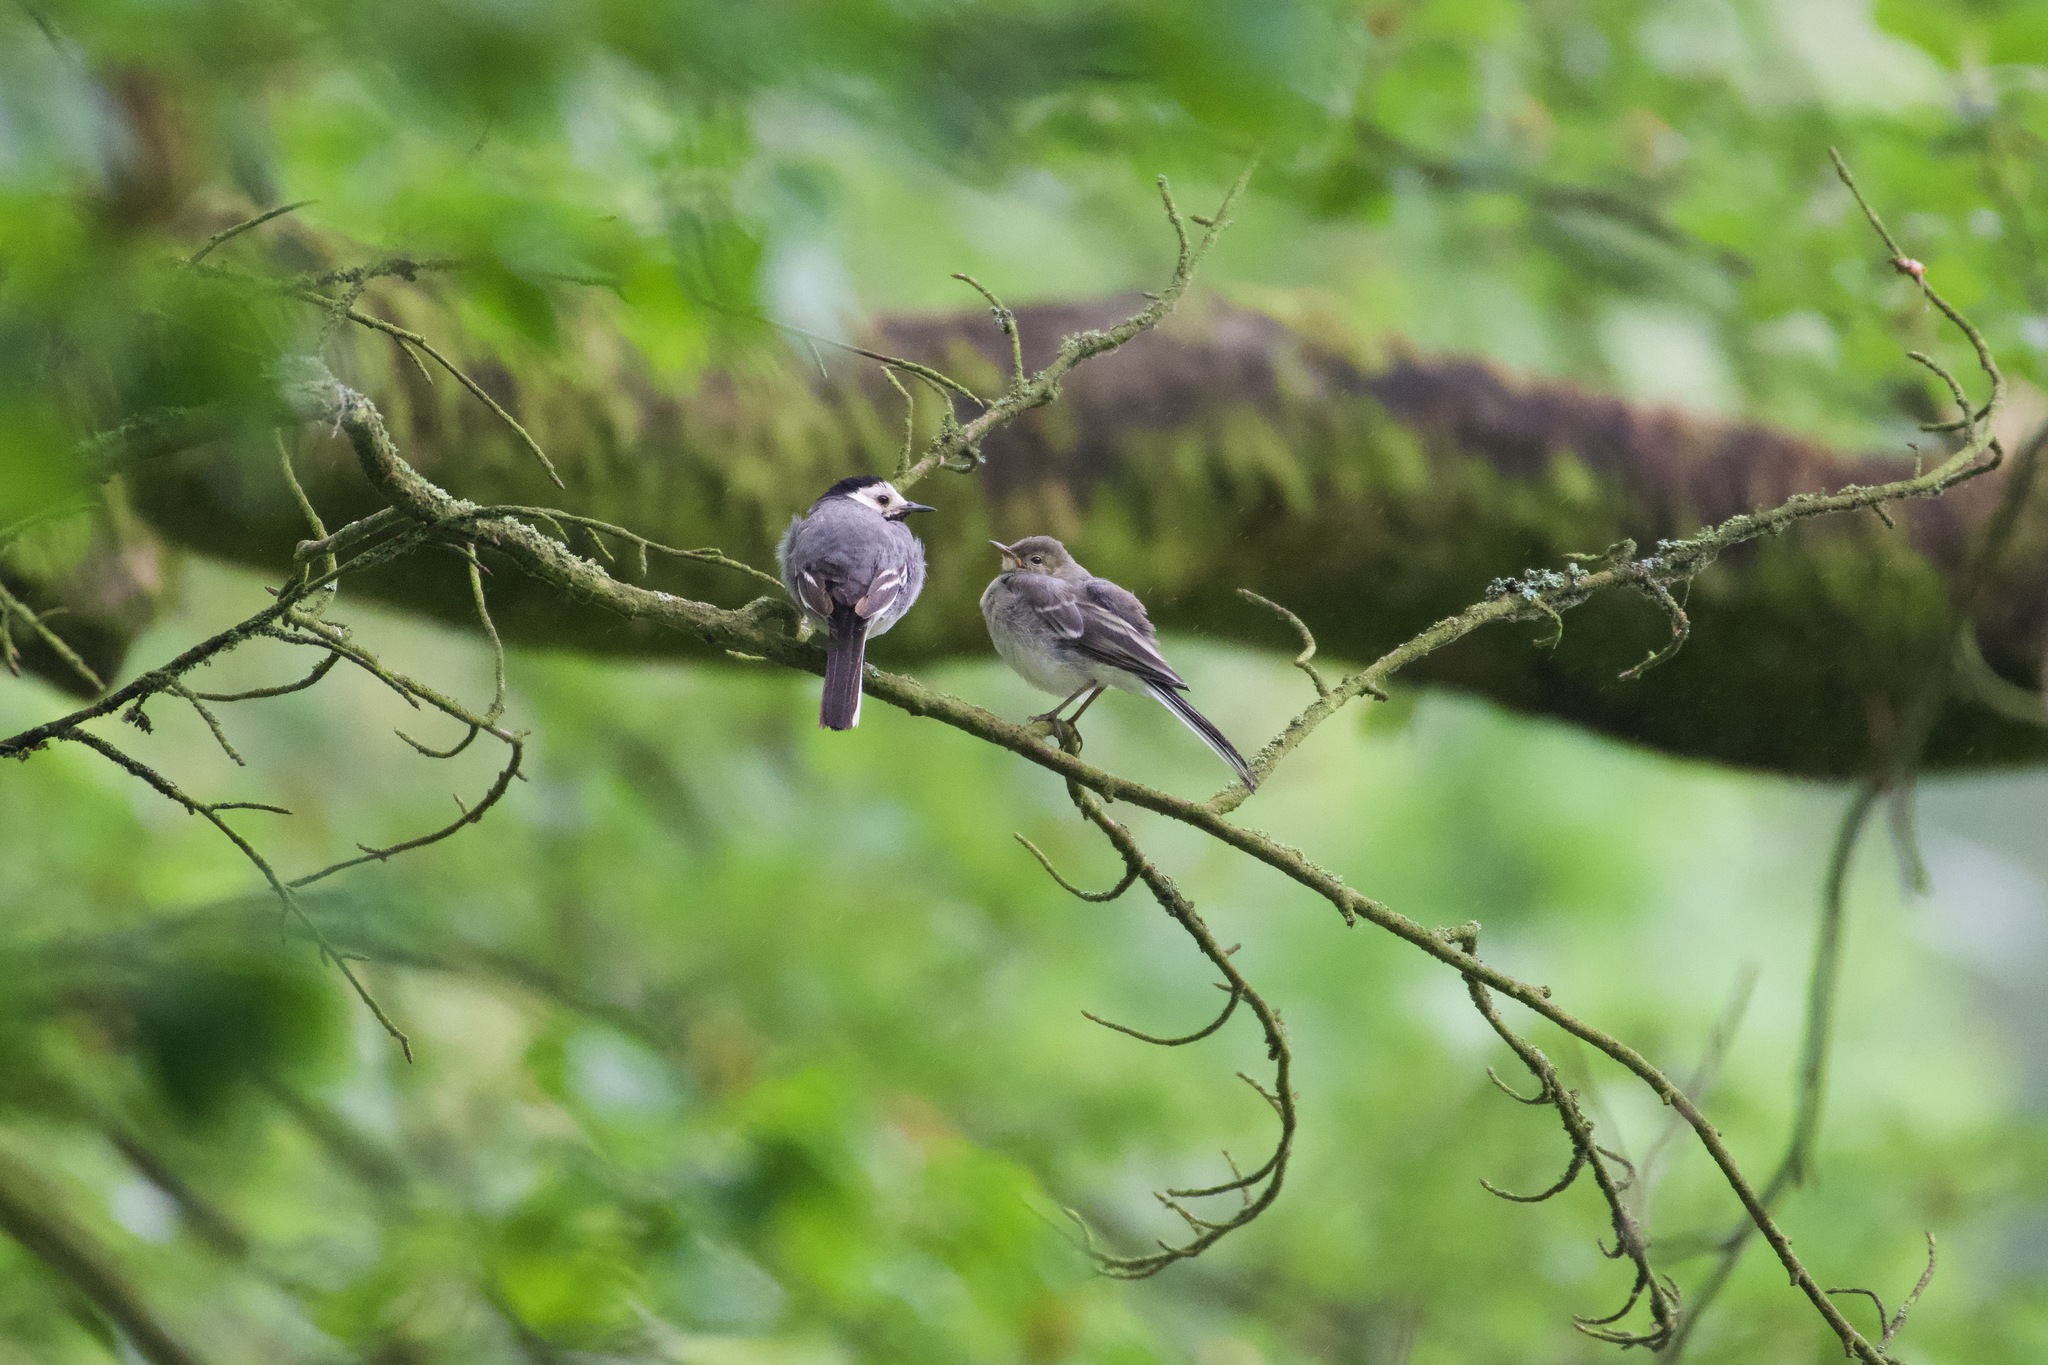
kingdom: Animalia
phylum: Chordata
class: Aves
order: Passeriformes
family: Motacillidae
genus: Motacilla
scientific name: Motacilla alba
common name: White wagtail
